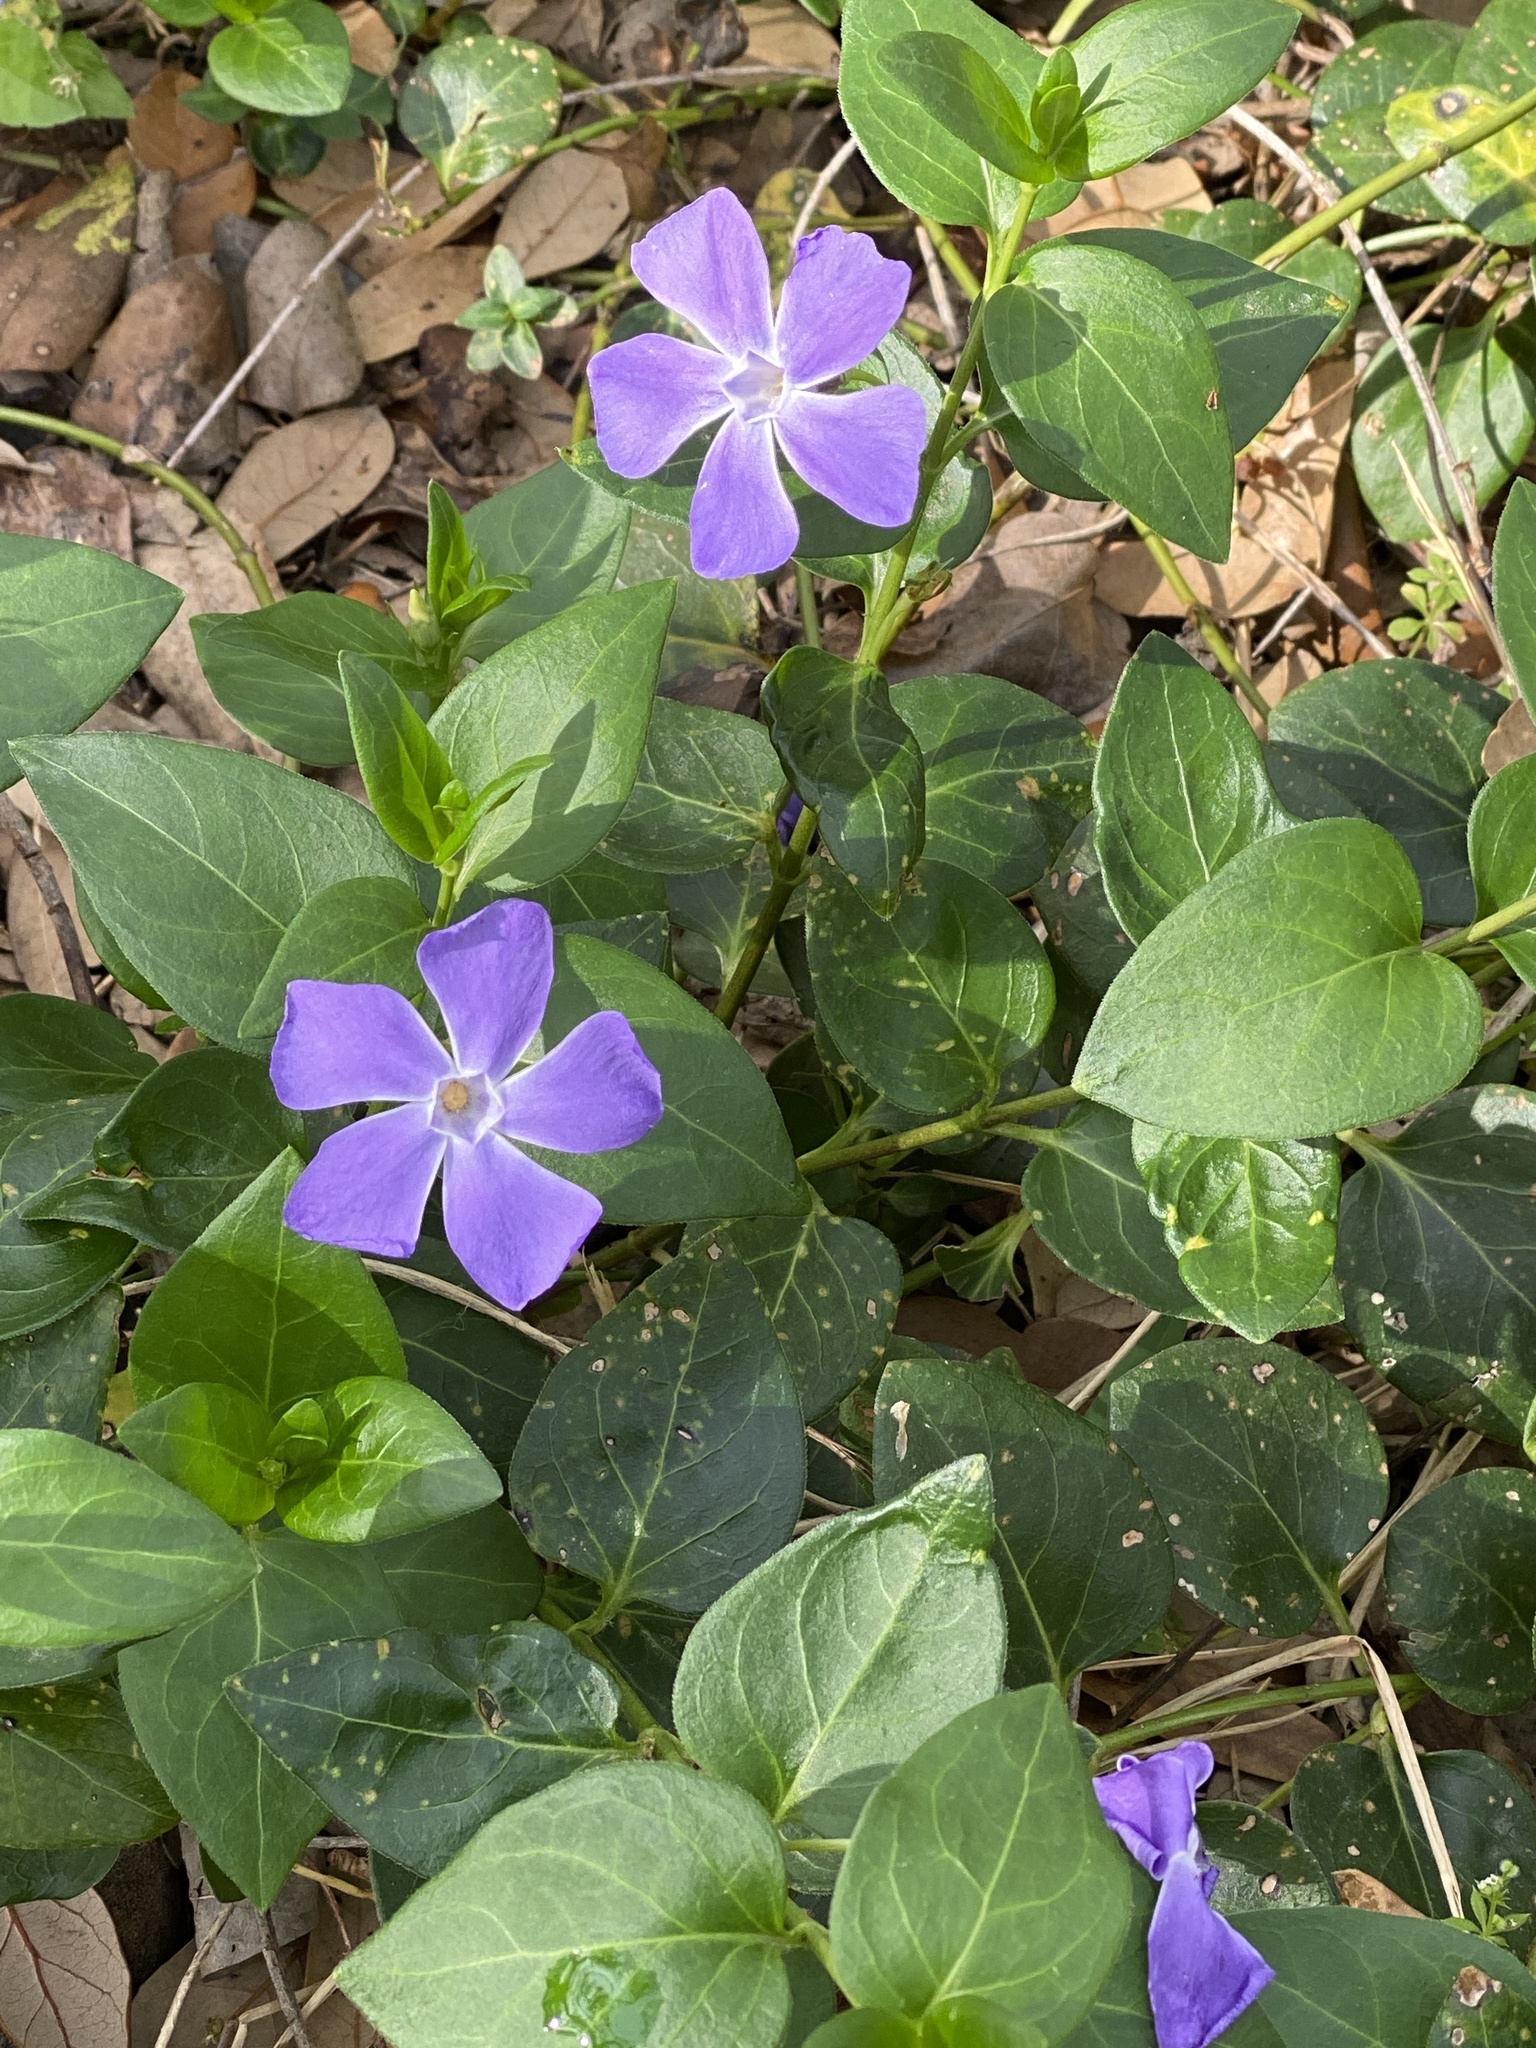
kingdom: Plantae
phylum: Tracheophyta
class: Magnoliopsida
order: Gentianales
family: Apocynaceae
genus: Vinca
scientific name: Vinca major
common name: Greater periwinkle
